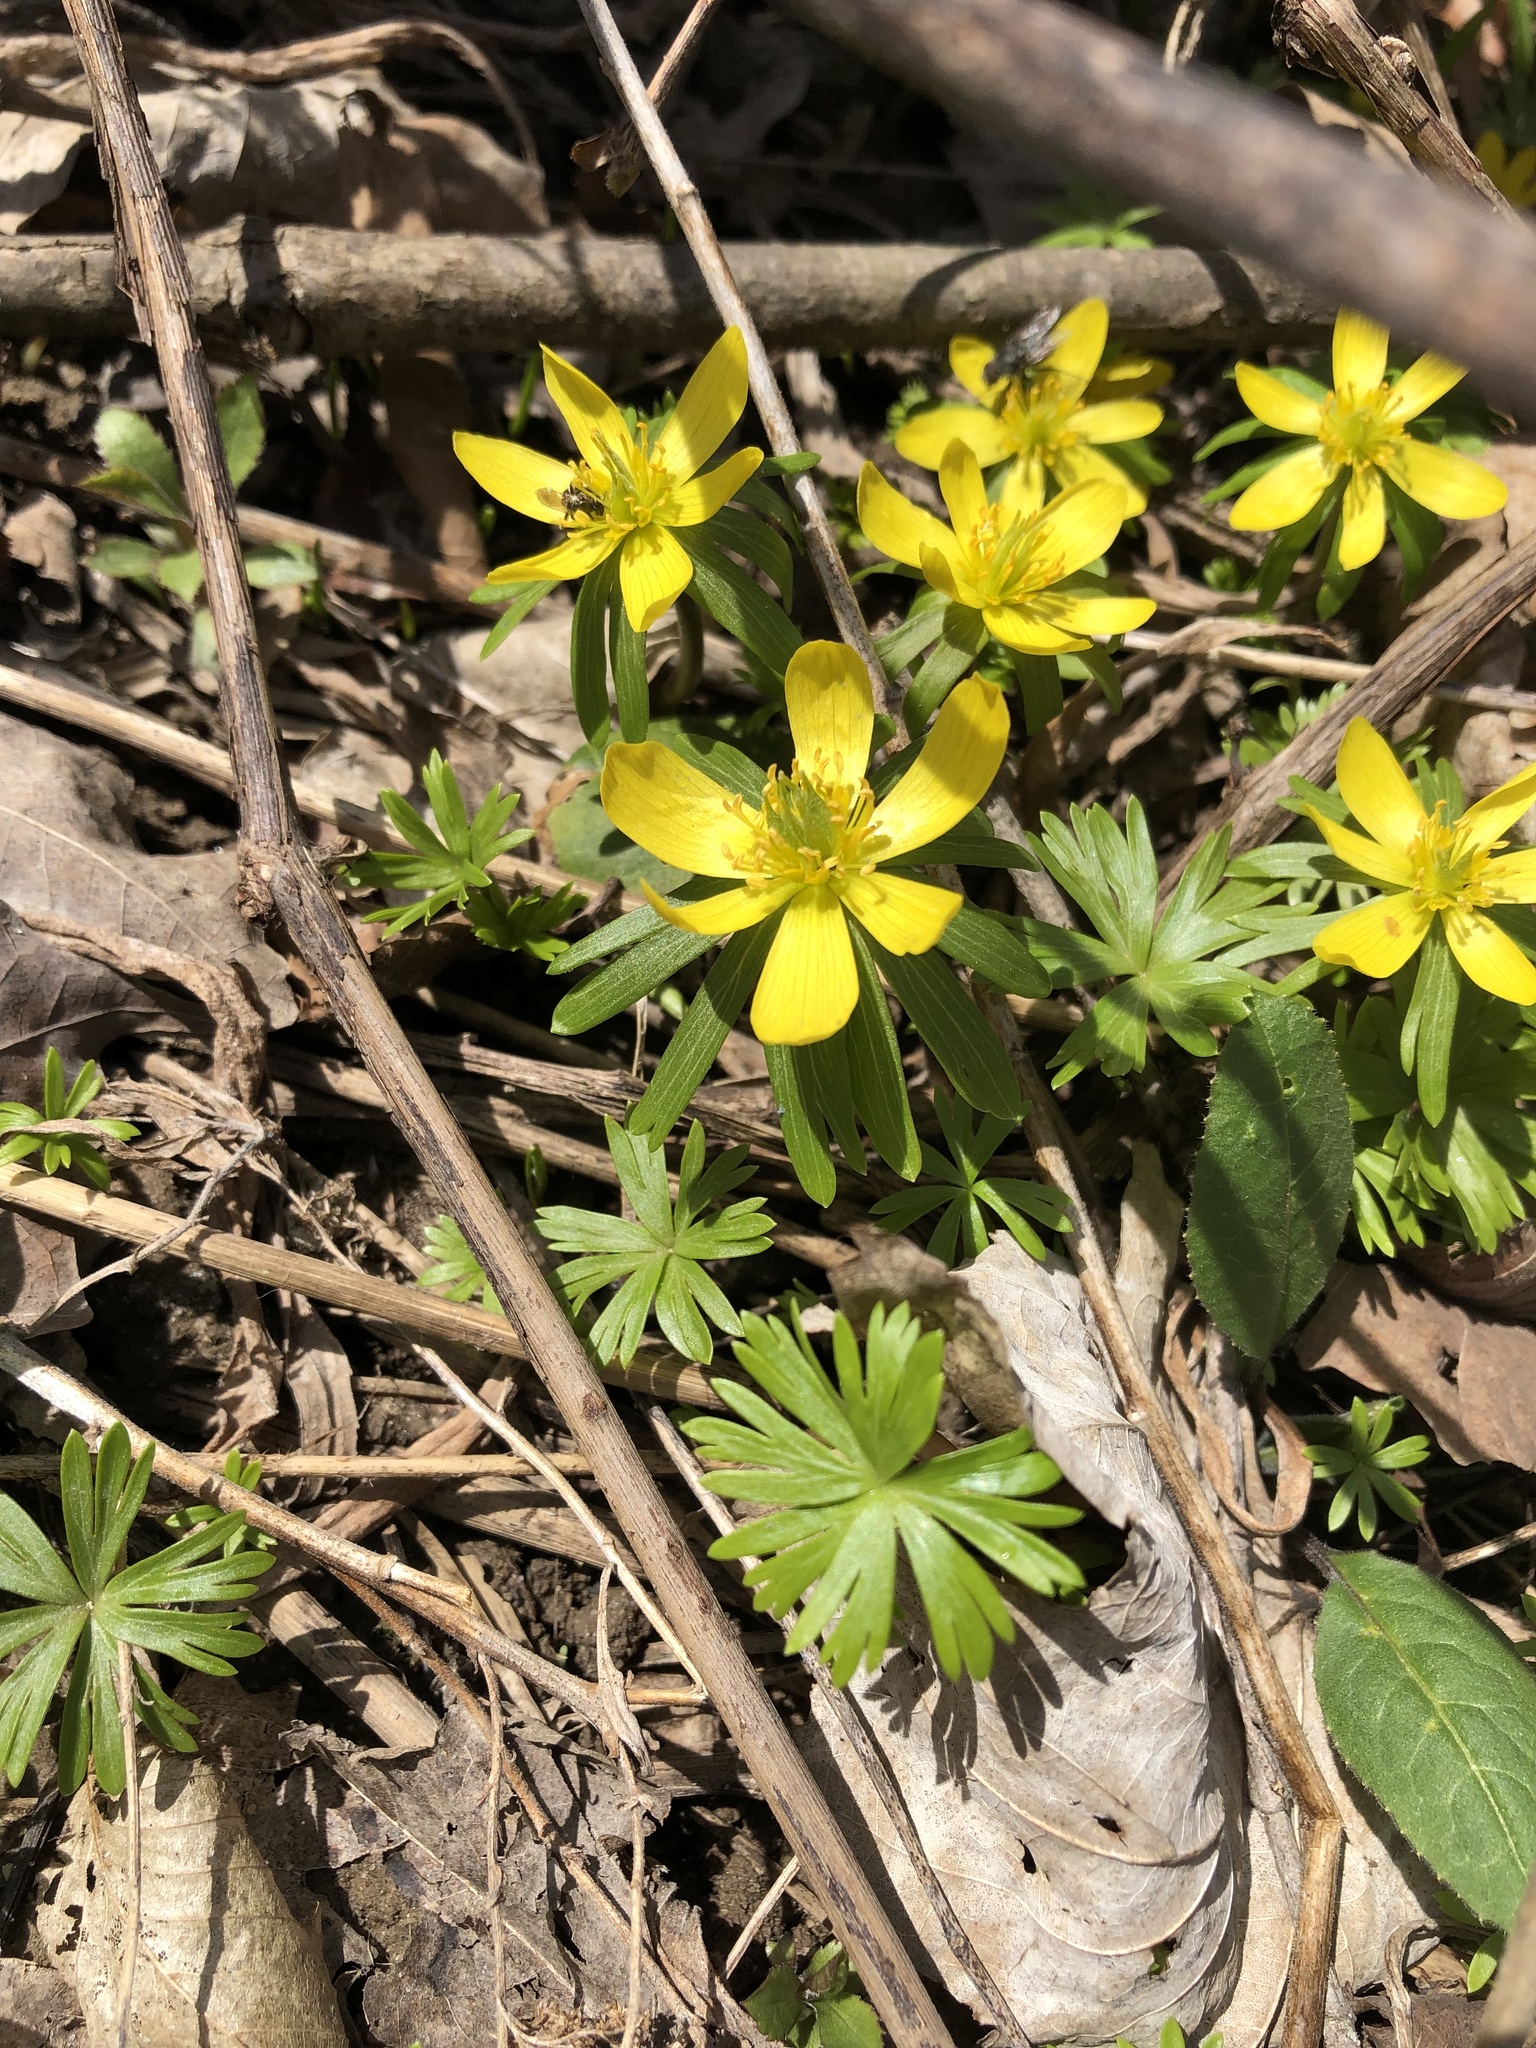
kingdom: Plantae
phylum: Tracheophyta
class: Magnoliopsida
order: Ranunculales
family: Ranunculaceae
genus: Eranthis
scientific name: Eranthis hyemalis
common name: Winter aconite
